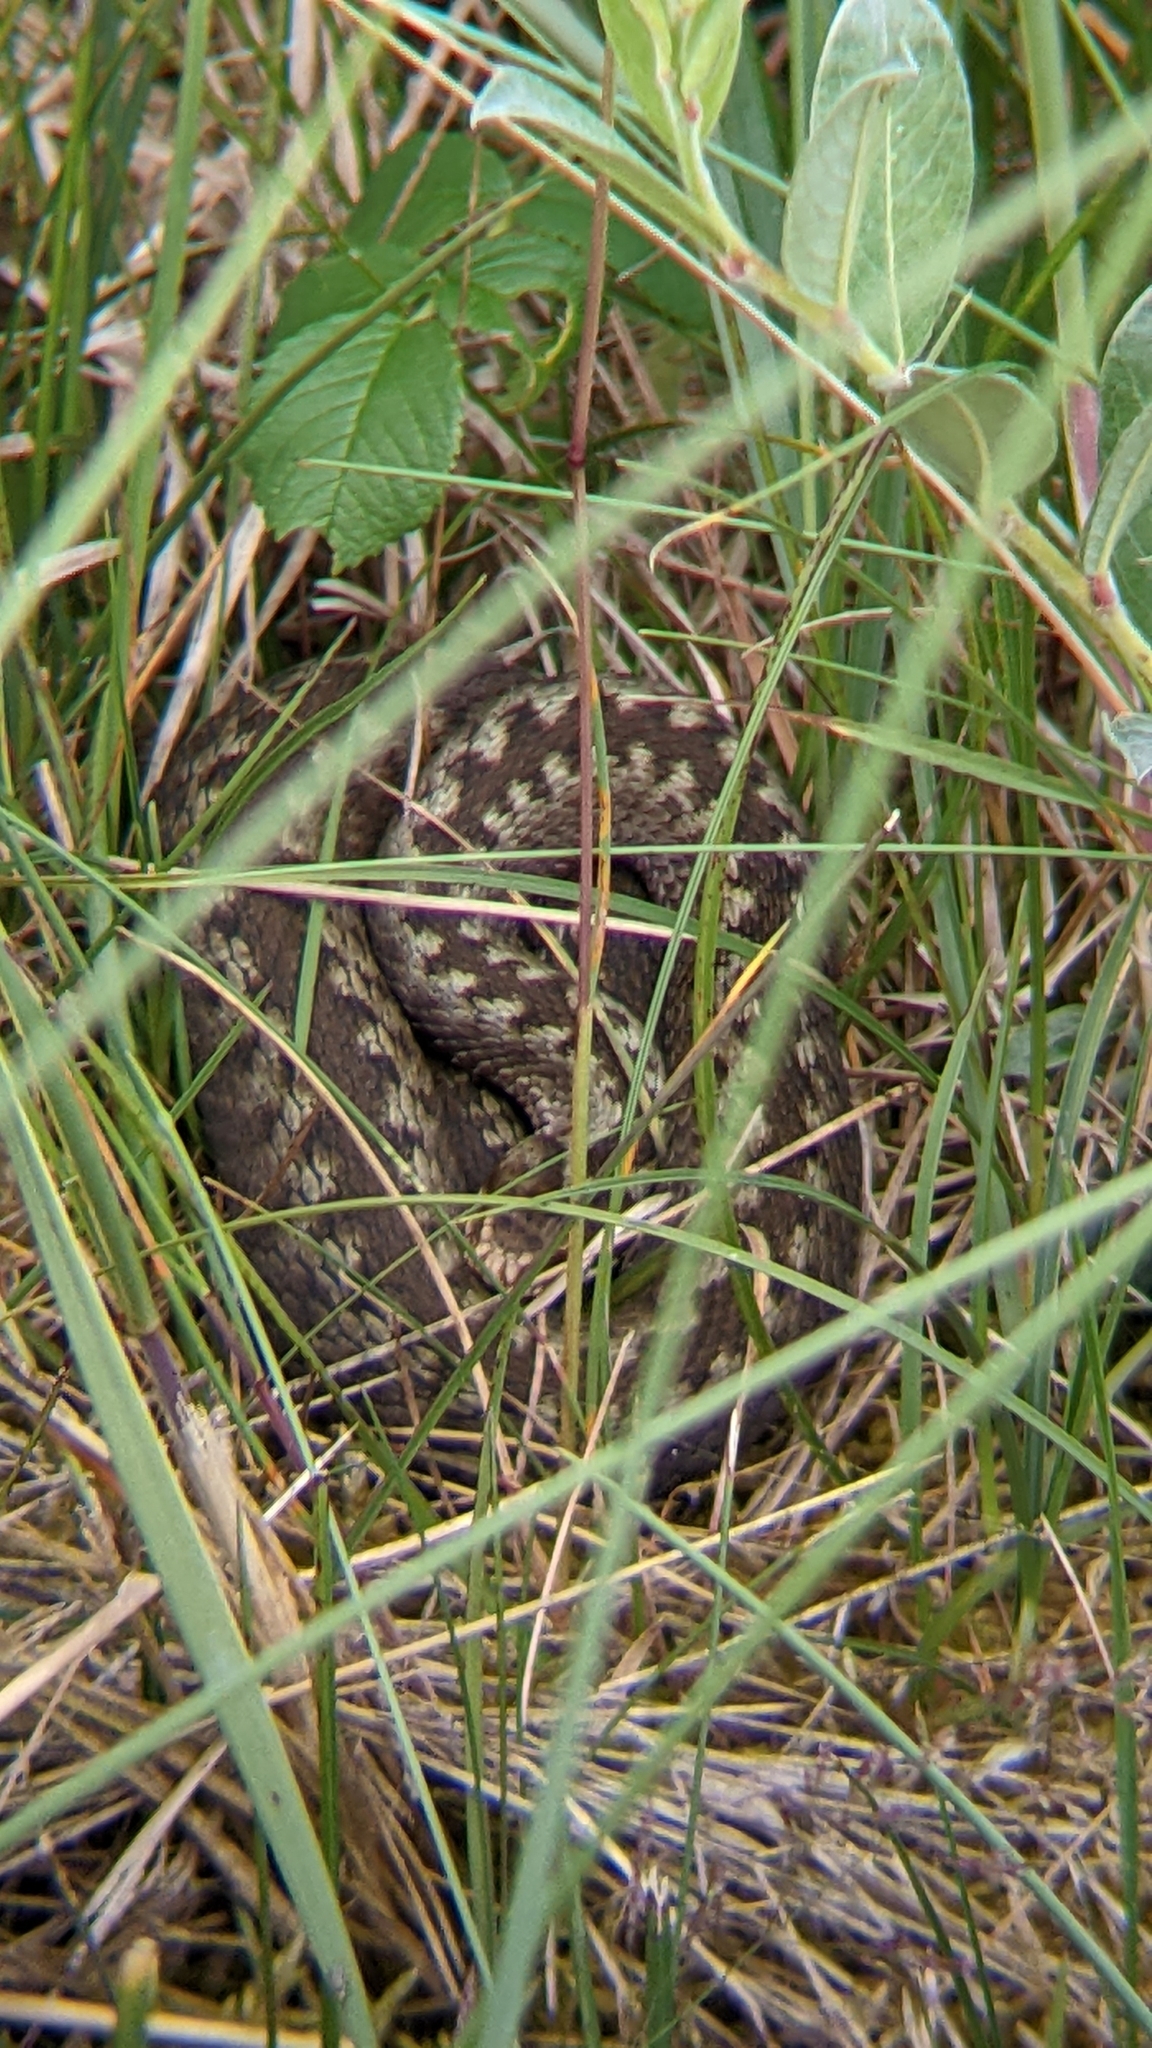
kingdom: Animalia
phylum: Chordata
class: Squamata
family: Viperidae
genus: Vipera
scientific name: Vipera berus
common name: Adder
